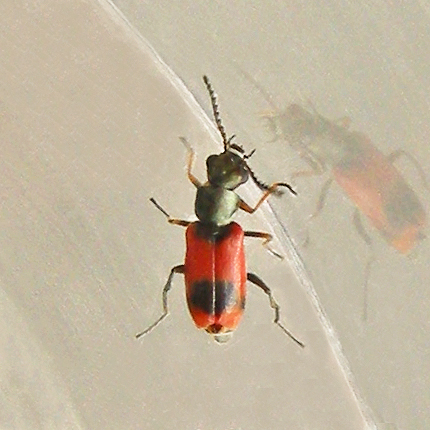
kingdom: Animalia
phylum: Arthropoda
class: Insecta
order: Coleoptera
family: Melyridae
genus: Anthocomus
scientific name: Anthocomus equestris
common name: Black-banded soft-winged flower beetle
